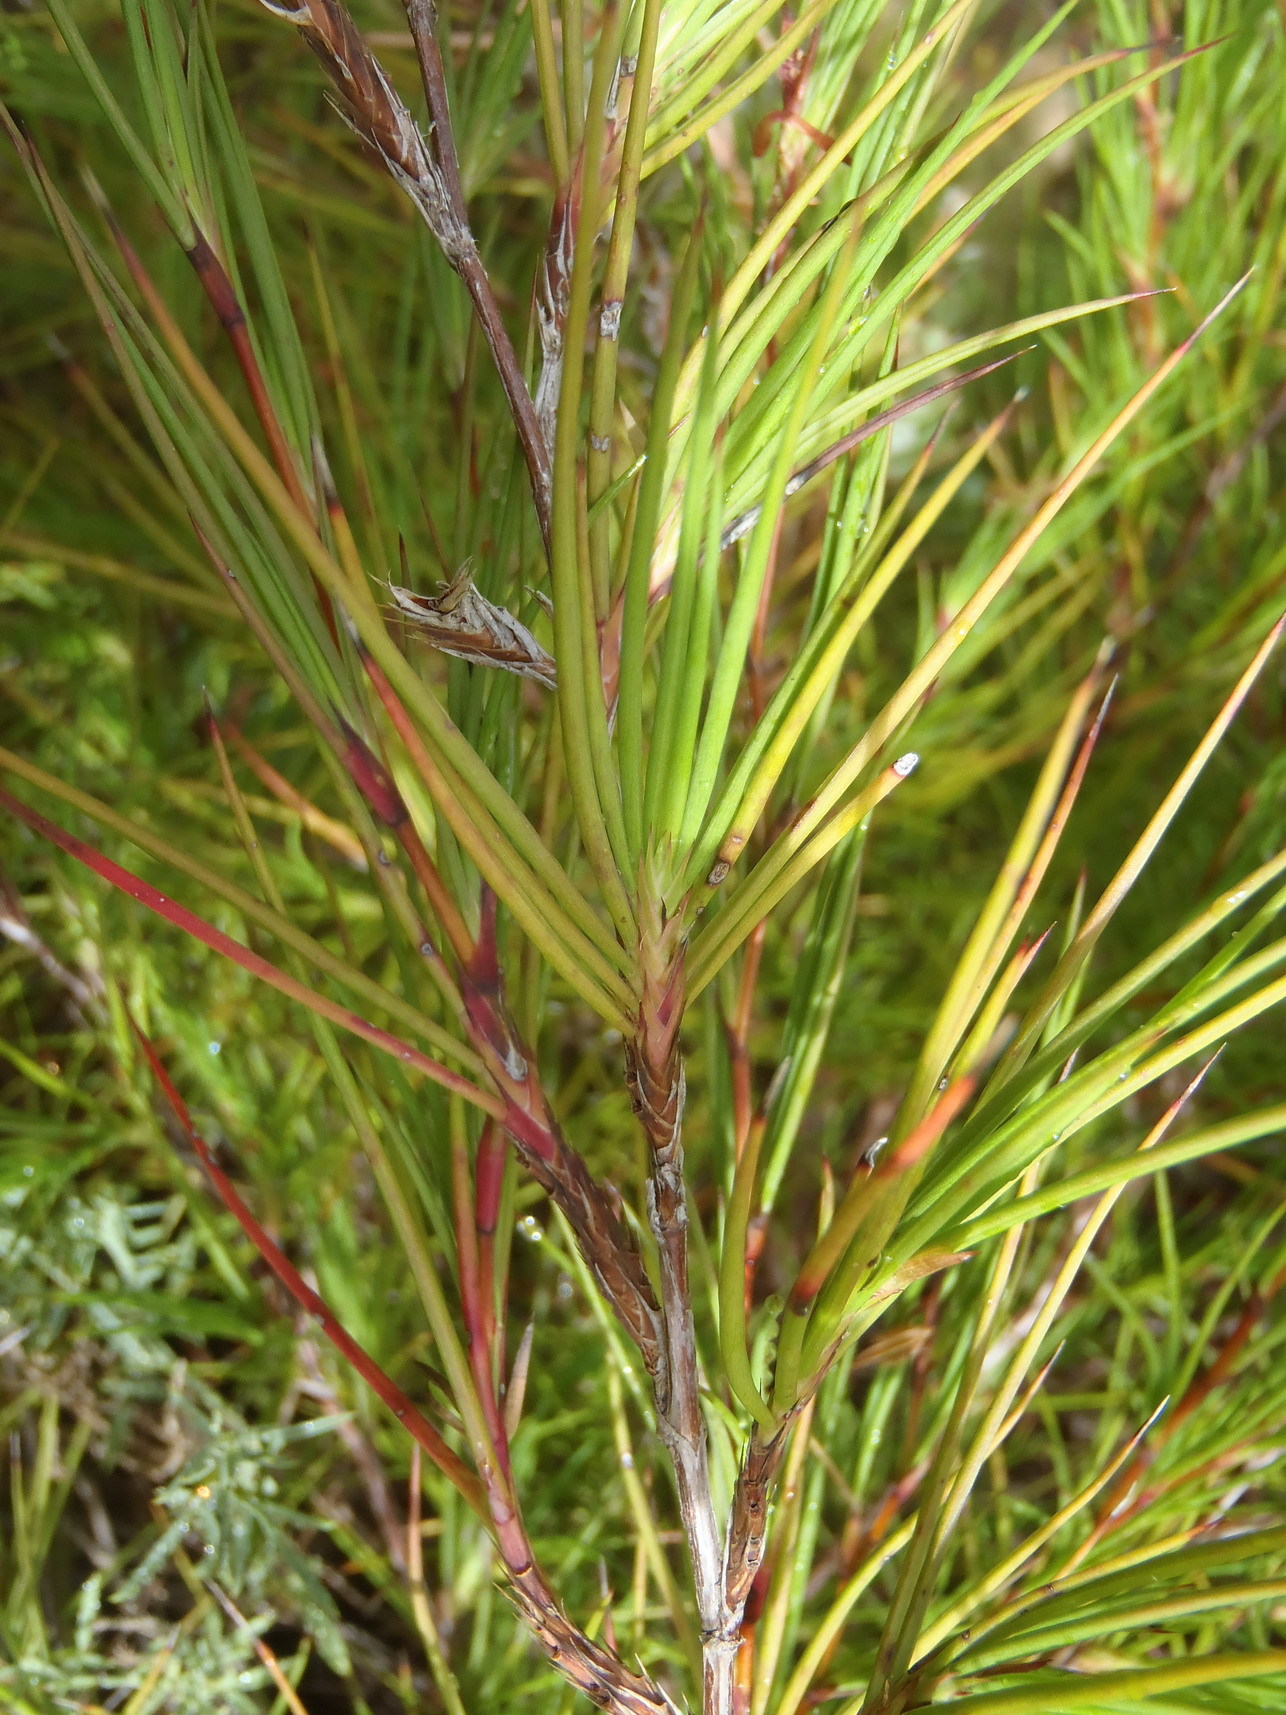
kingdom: Plantae
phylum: Tracheophyta
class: Magnoliopsida
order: Rosales
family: Rosaceae
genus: Cliffortia
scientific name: Cliffortia aculeata
